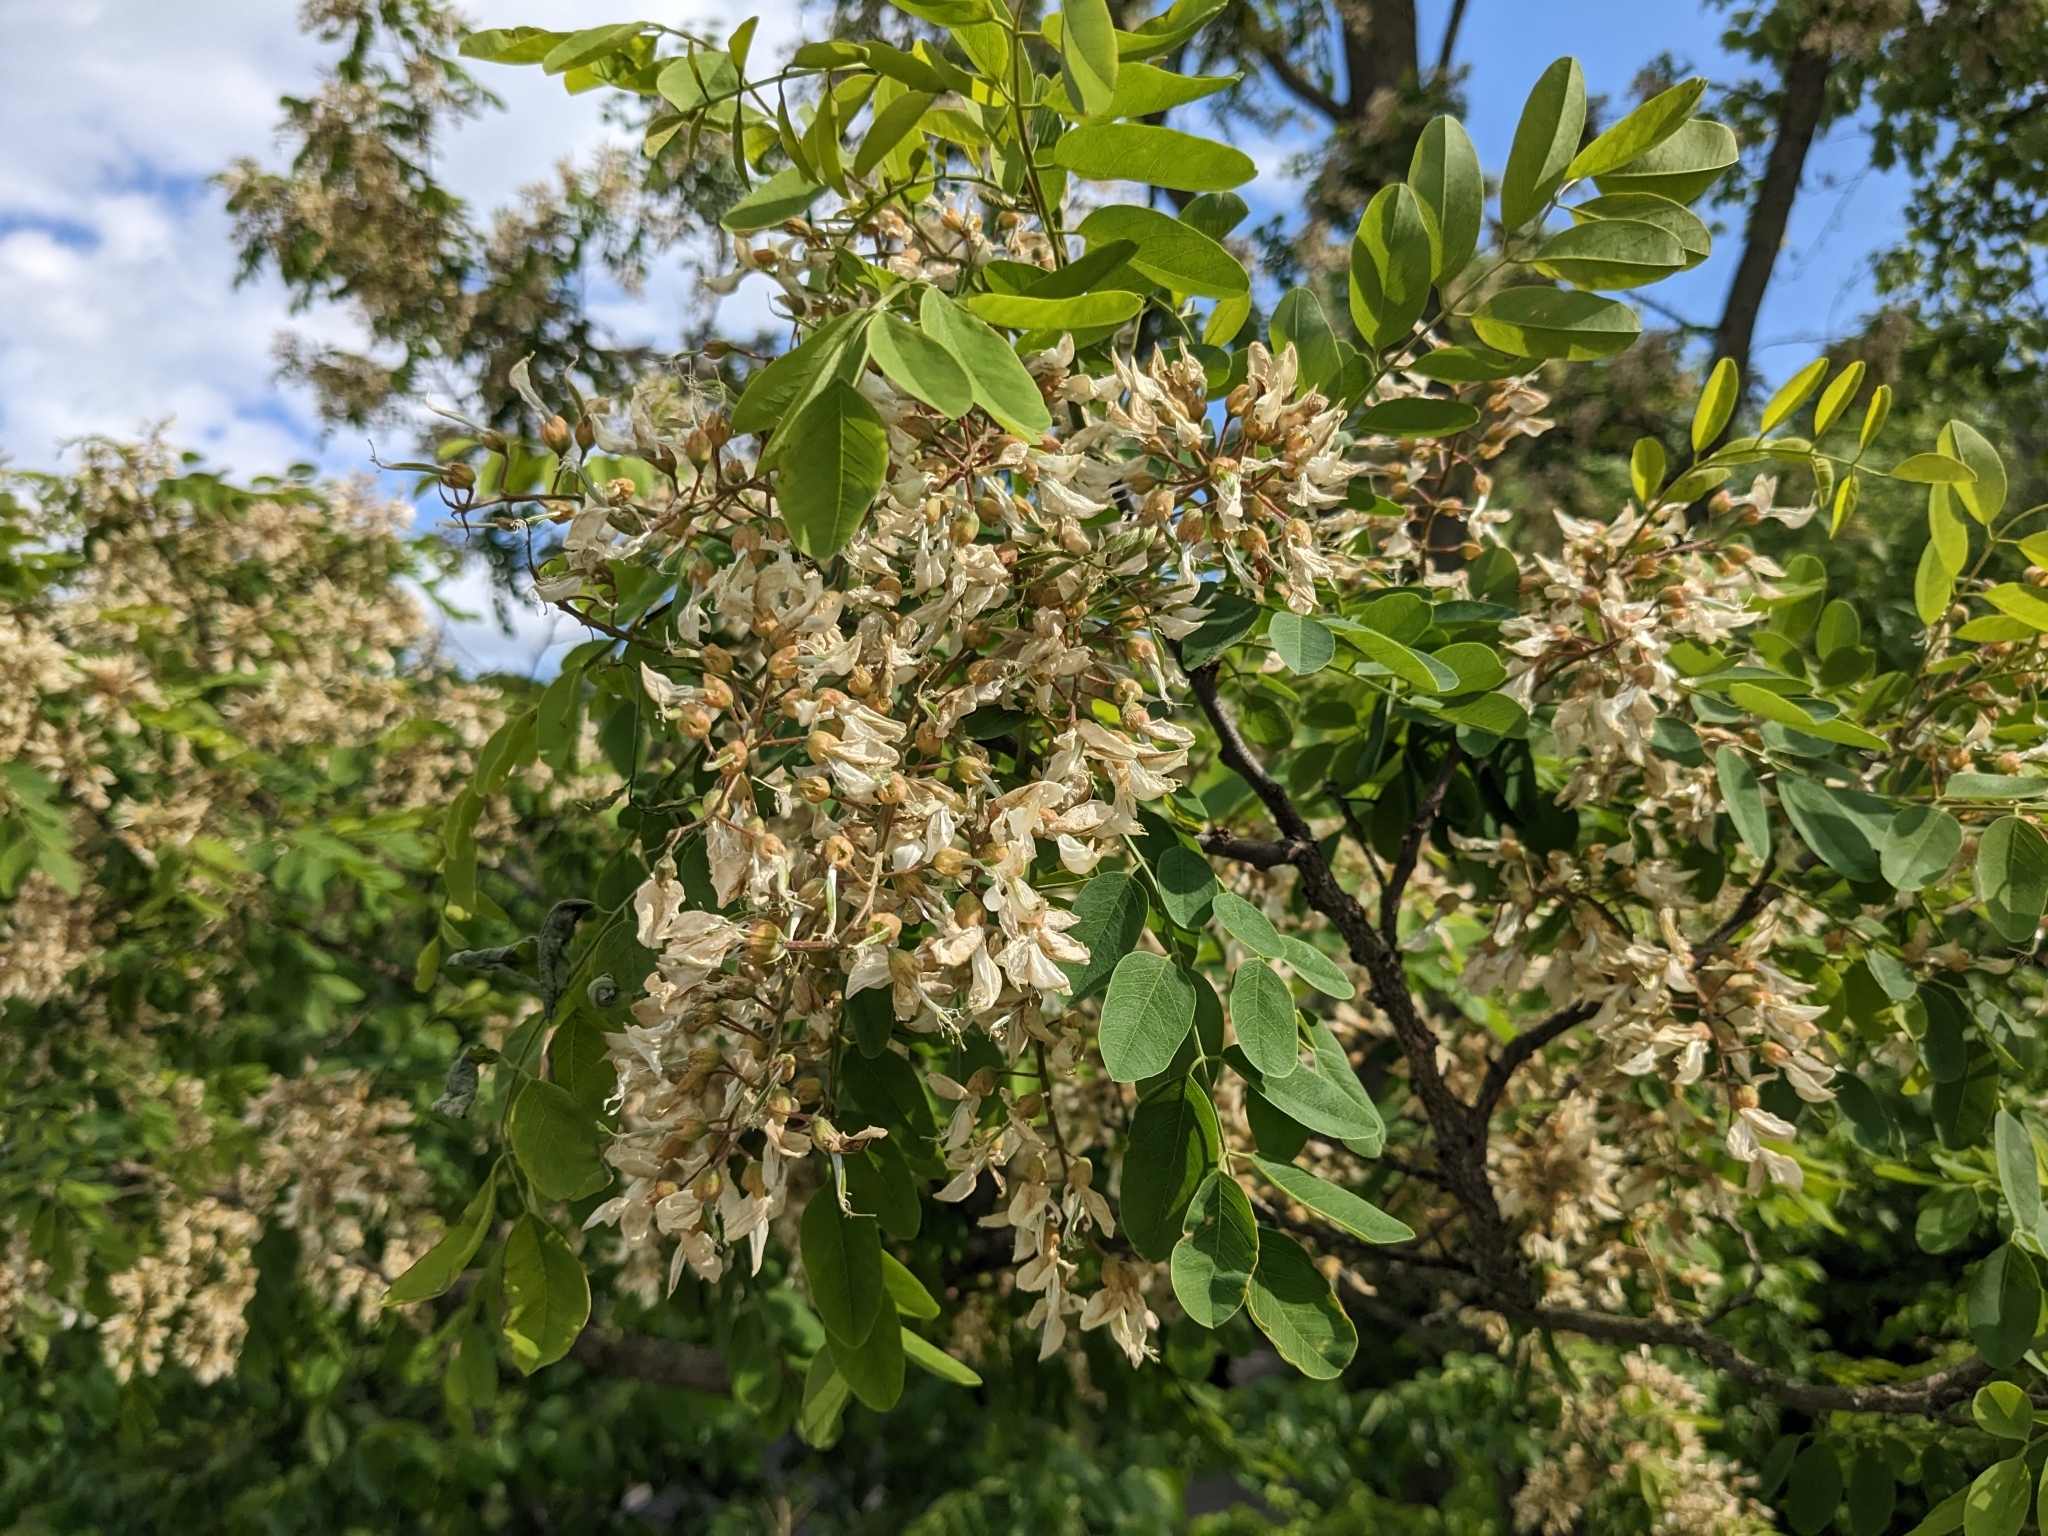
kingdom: Plantae
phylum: Tracheophyta
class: Magnoliopsida
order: Fabales
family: Fabaceae
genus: Robinia
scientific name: Robinia pseudoacacia
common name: Black locust
